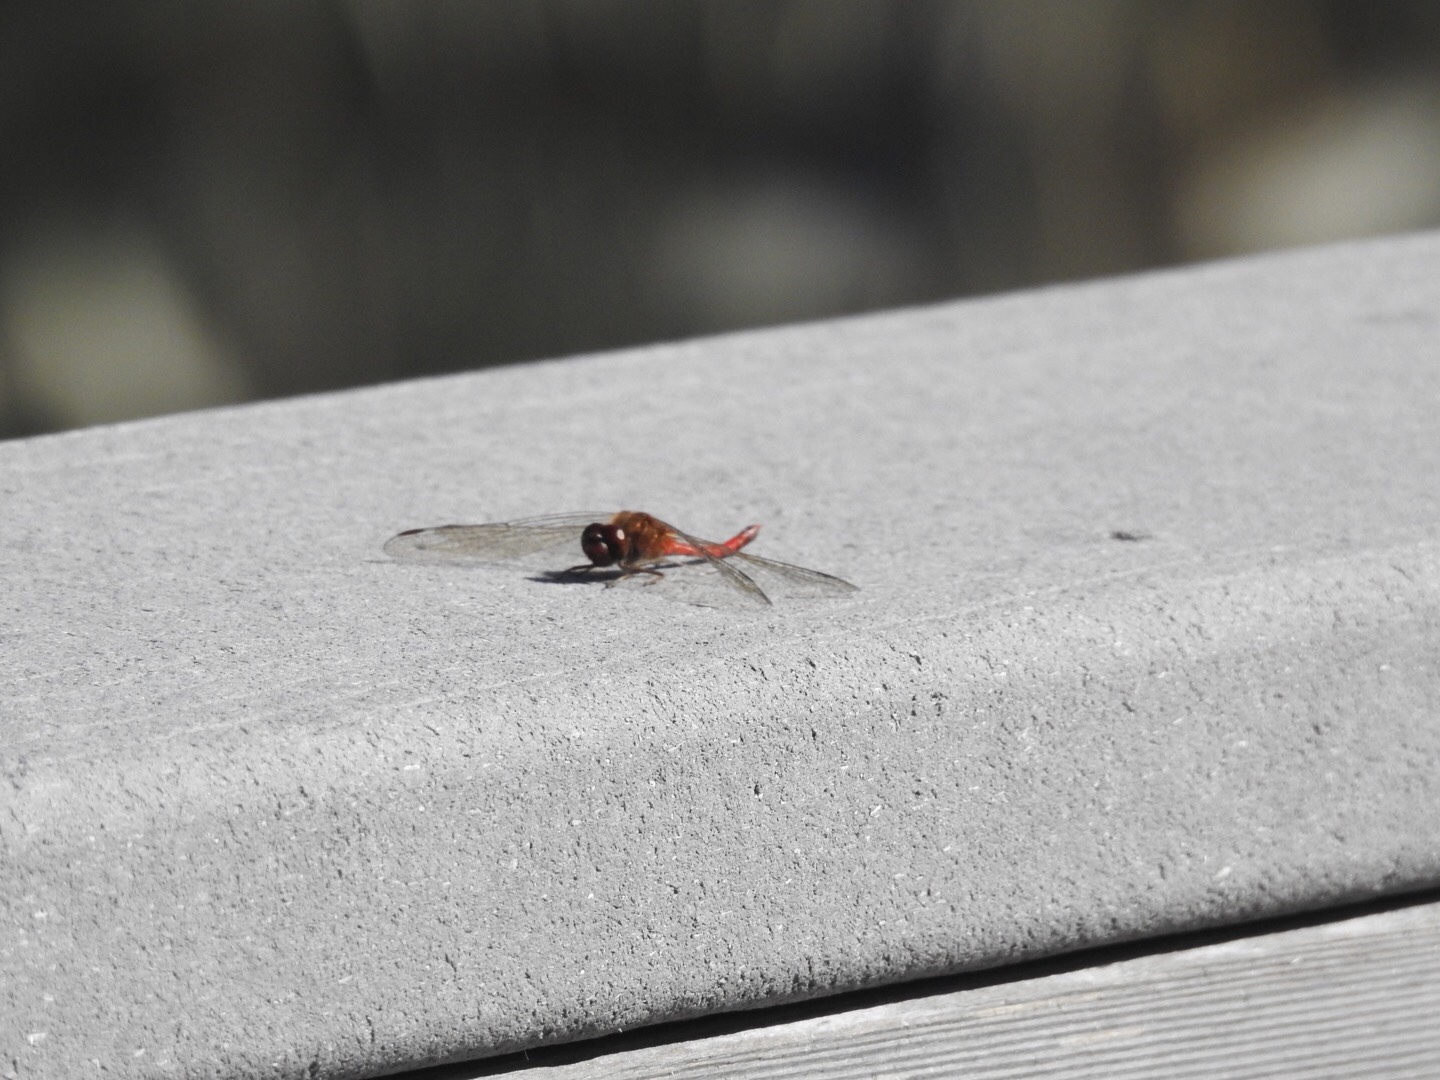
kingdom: Animalia
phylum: Arthropoda
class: Insecta
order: Odonata
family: Libellulidae
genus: Sympetrum
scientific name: Sympetrum vicinum
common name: Autumn meadowhawk
